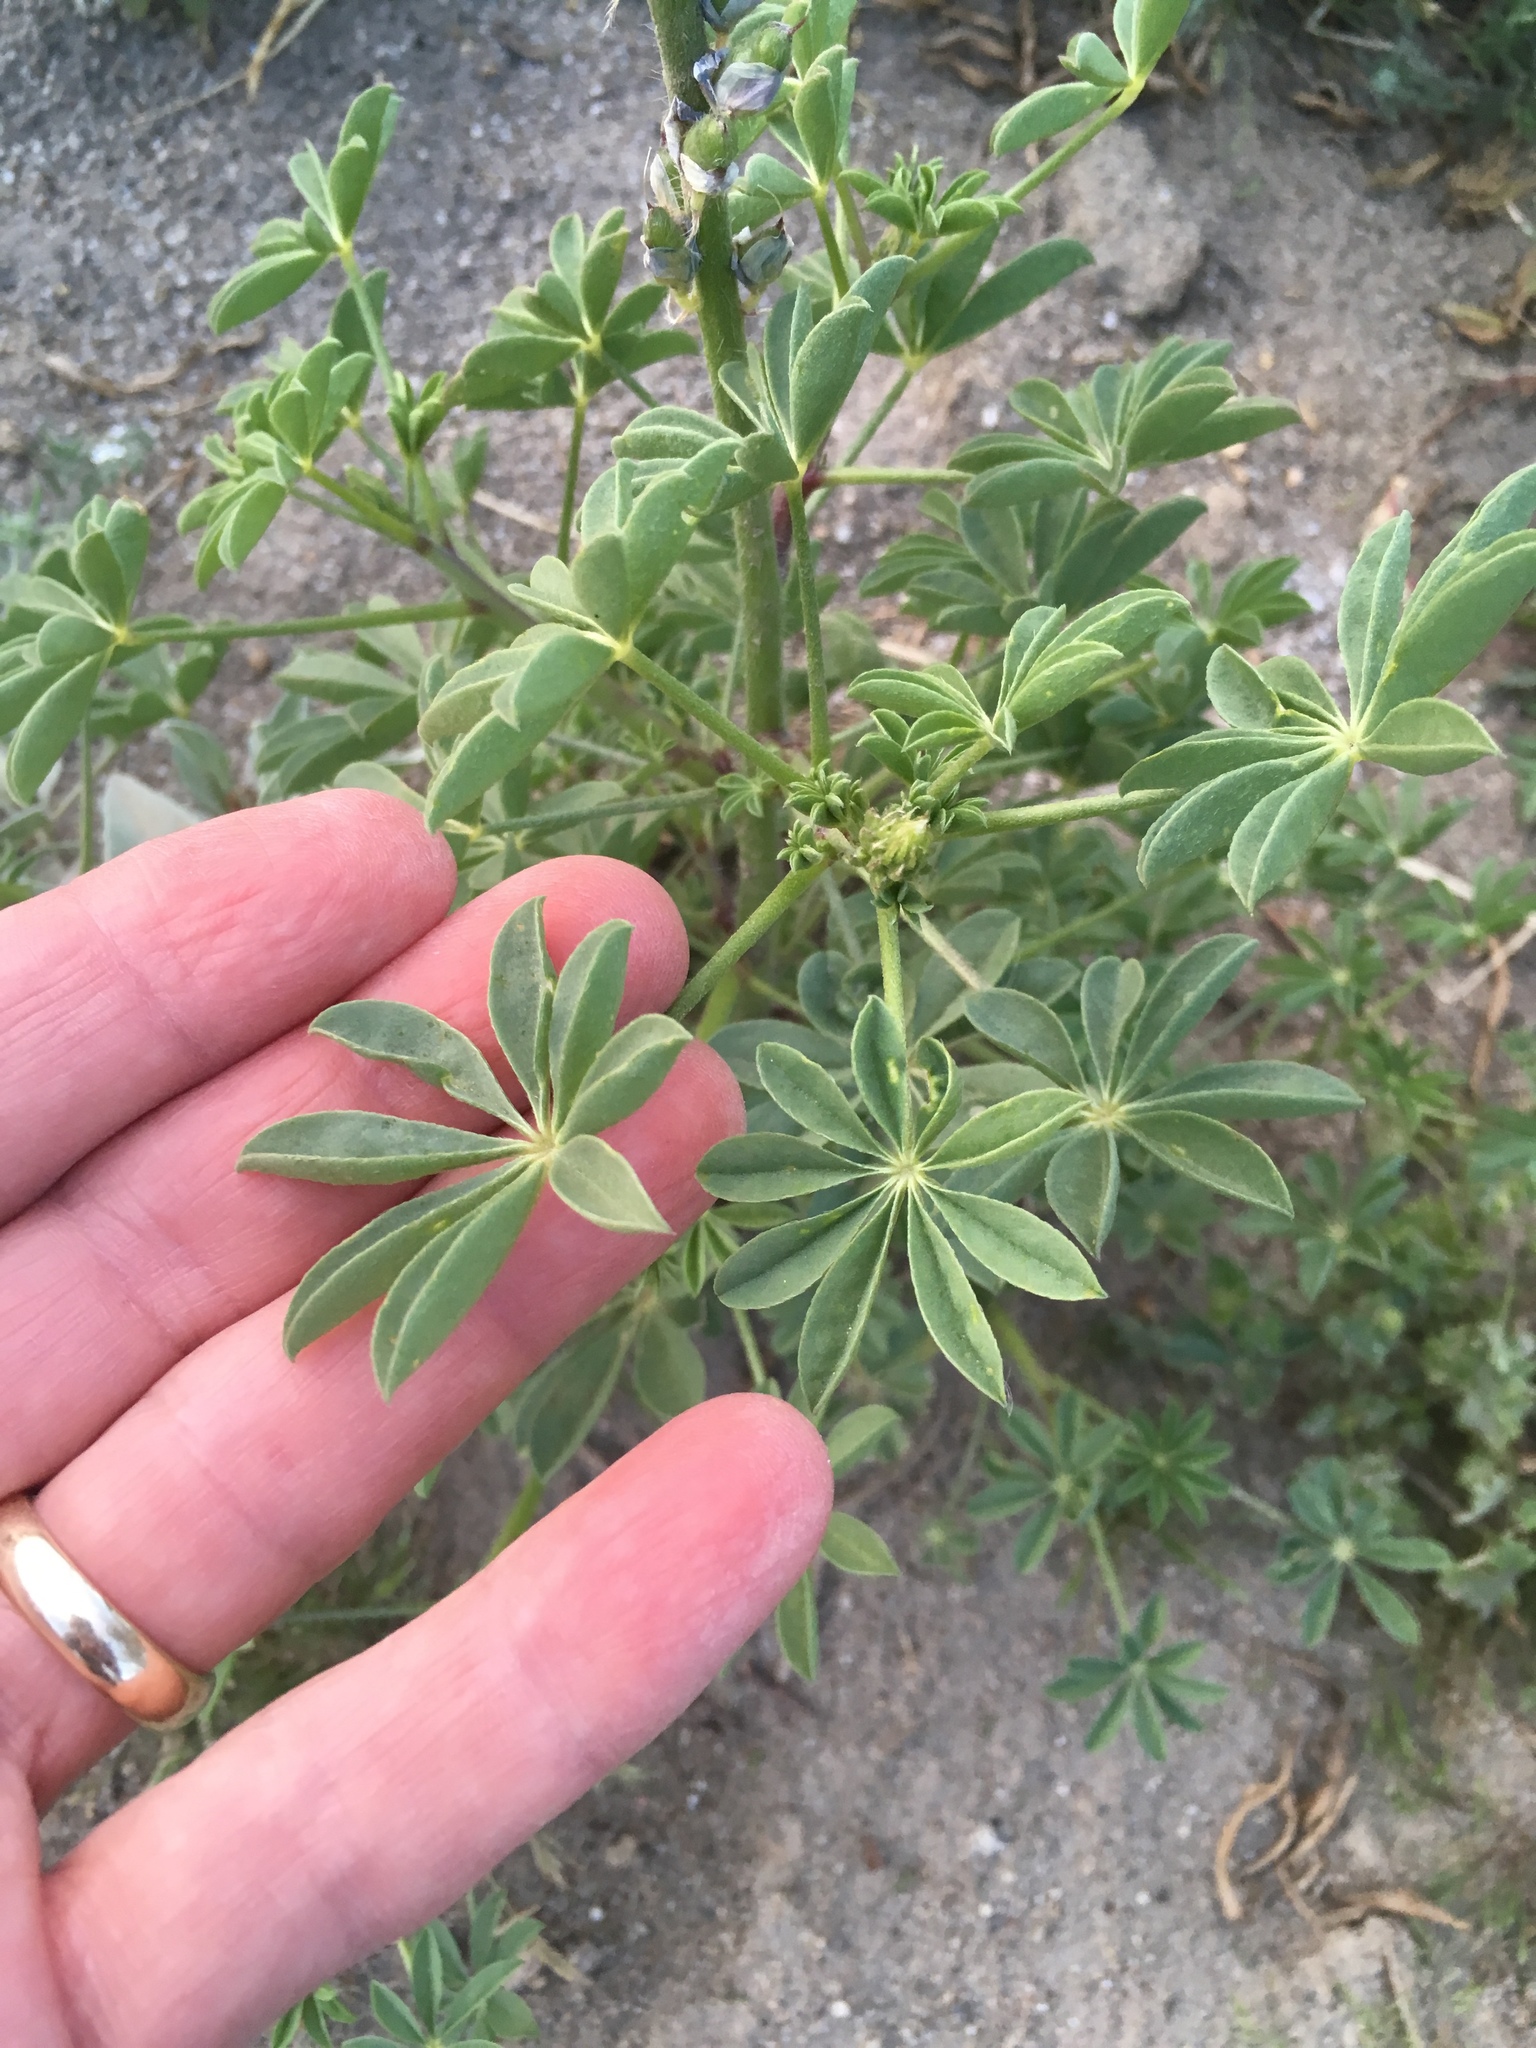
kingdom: Plantae
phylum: Tracheophyta
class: Magnoliopsida
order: Fabales
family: Fabaceae
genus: Lupinus
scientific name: Lupinus arizonicus
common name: Arizona lupine
